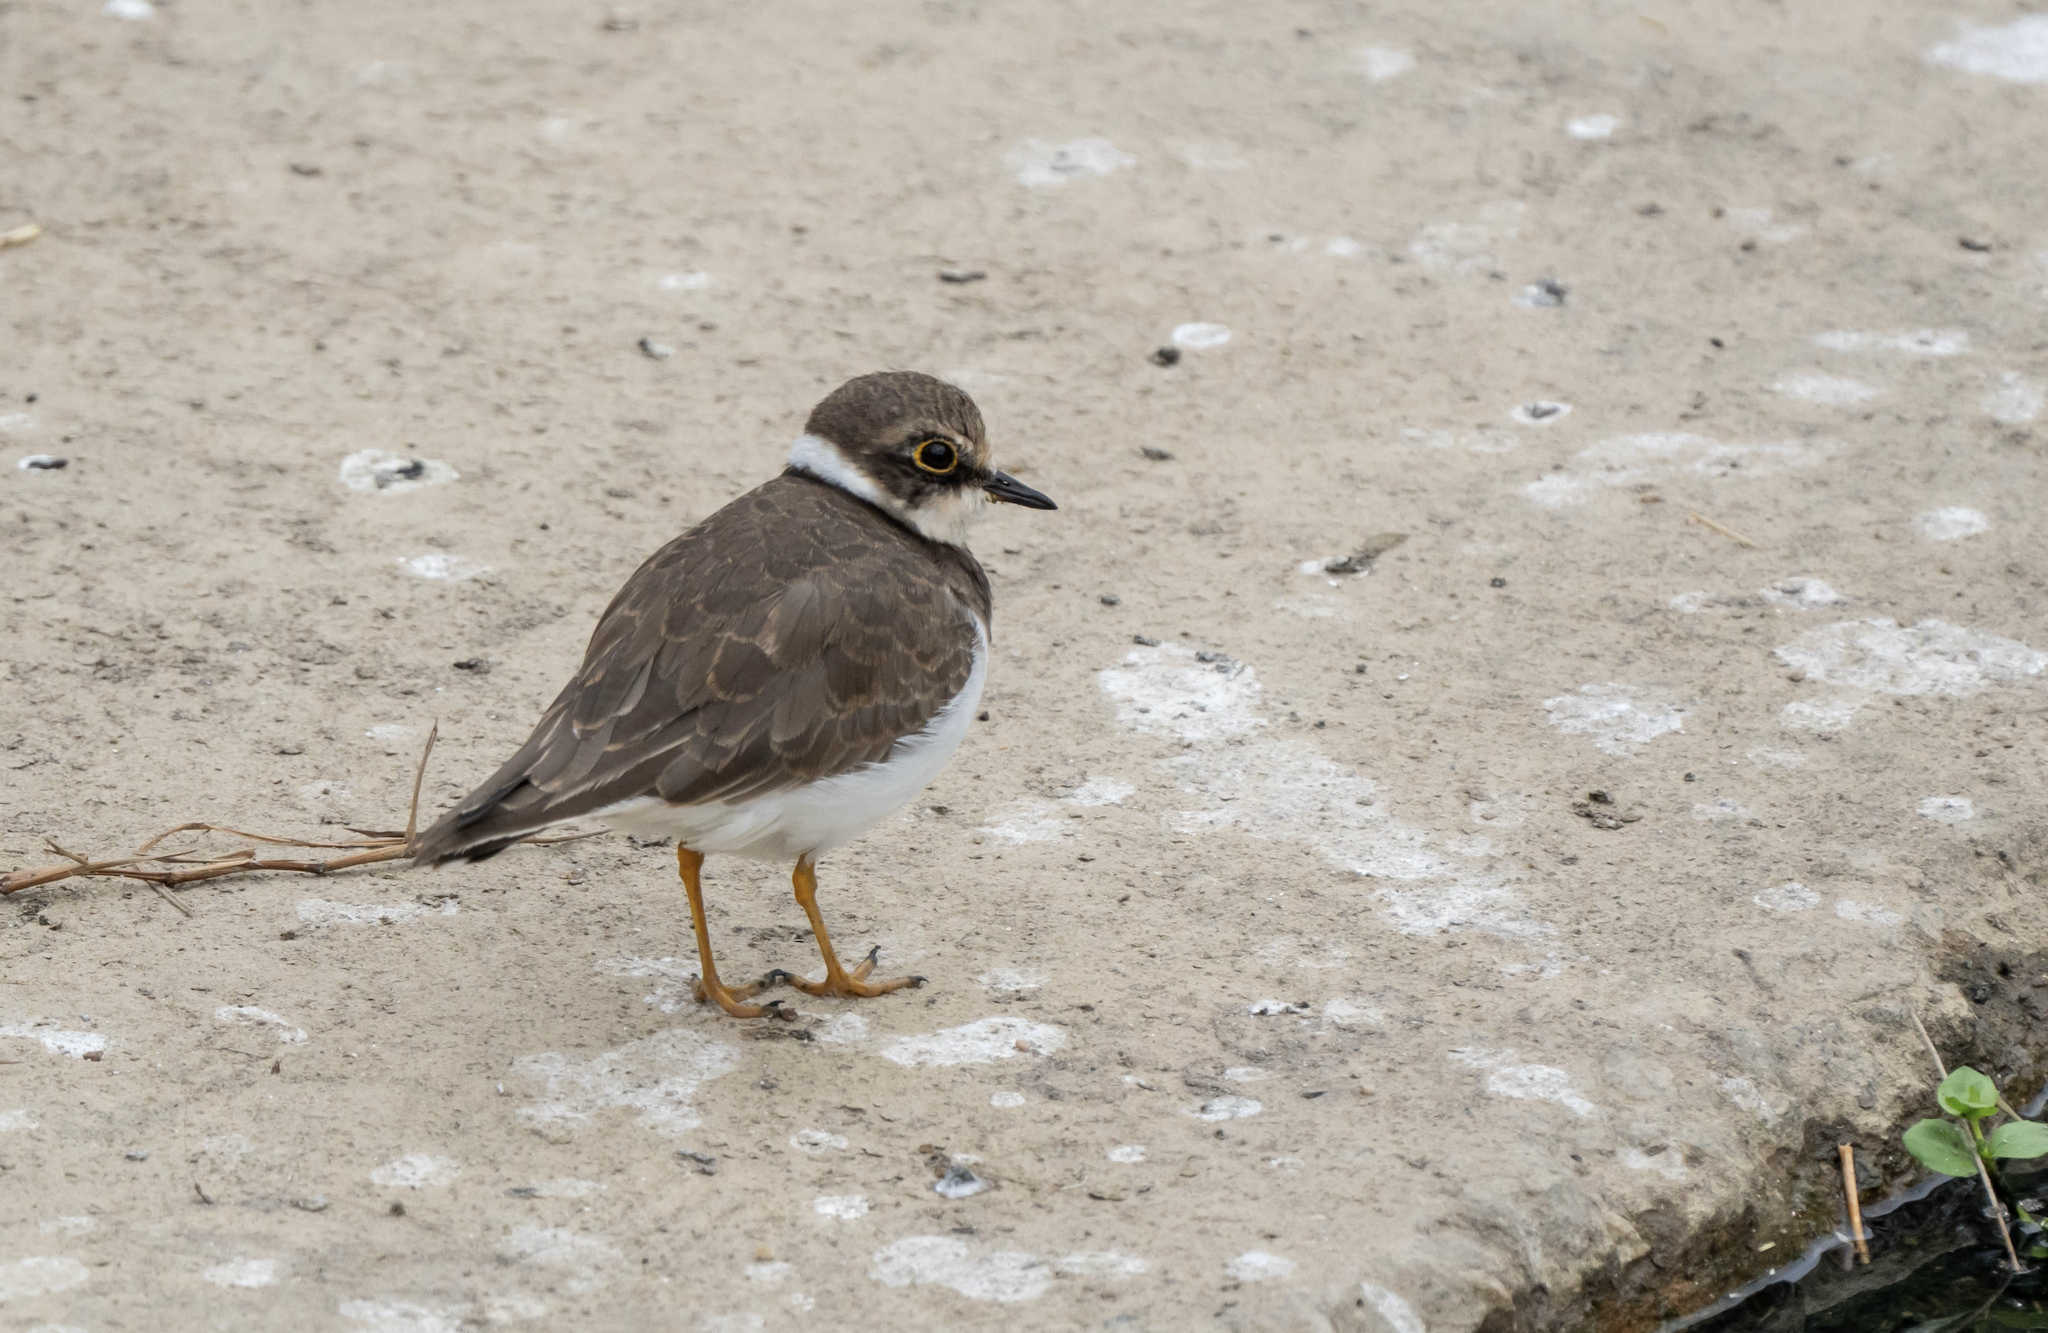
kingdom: Animalia
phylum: Chordata
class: Aves
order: Charadriiformes
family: Charadriidae
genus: Charadrius
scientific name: Charadrius dubius
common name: Little ringed plover
